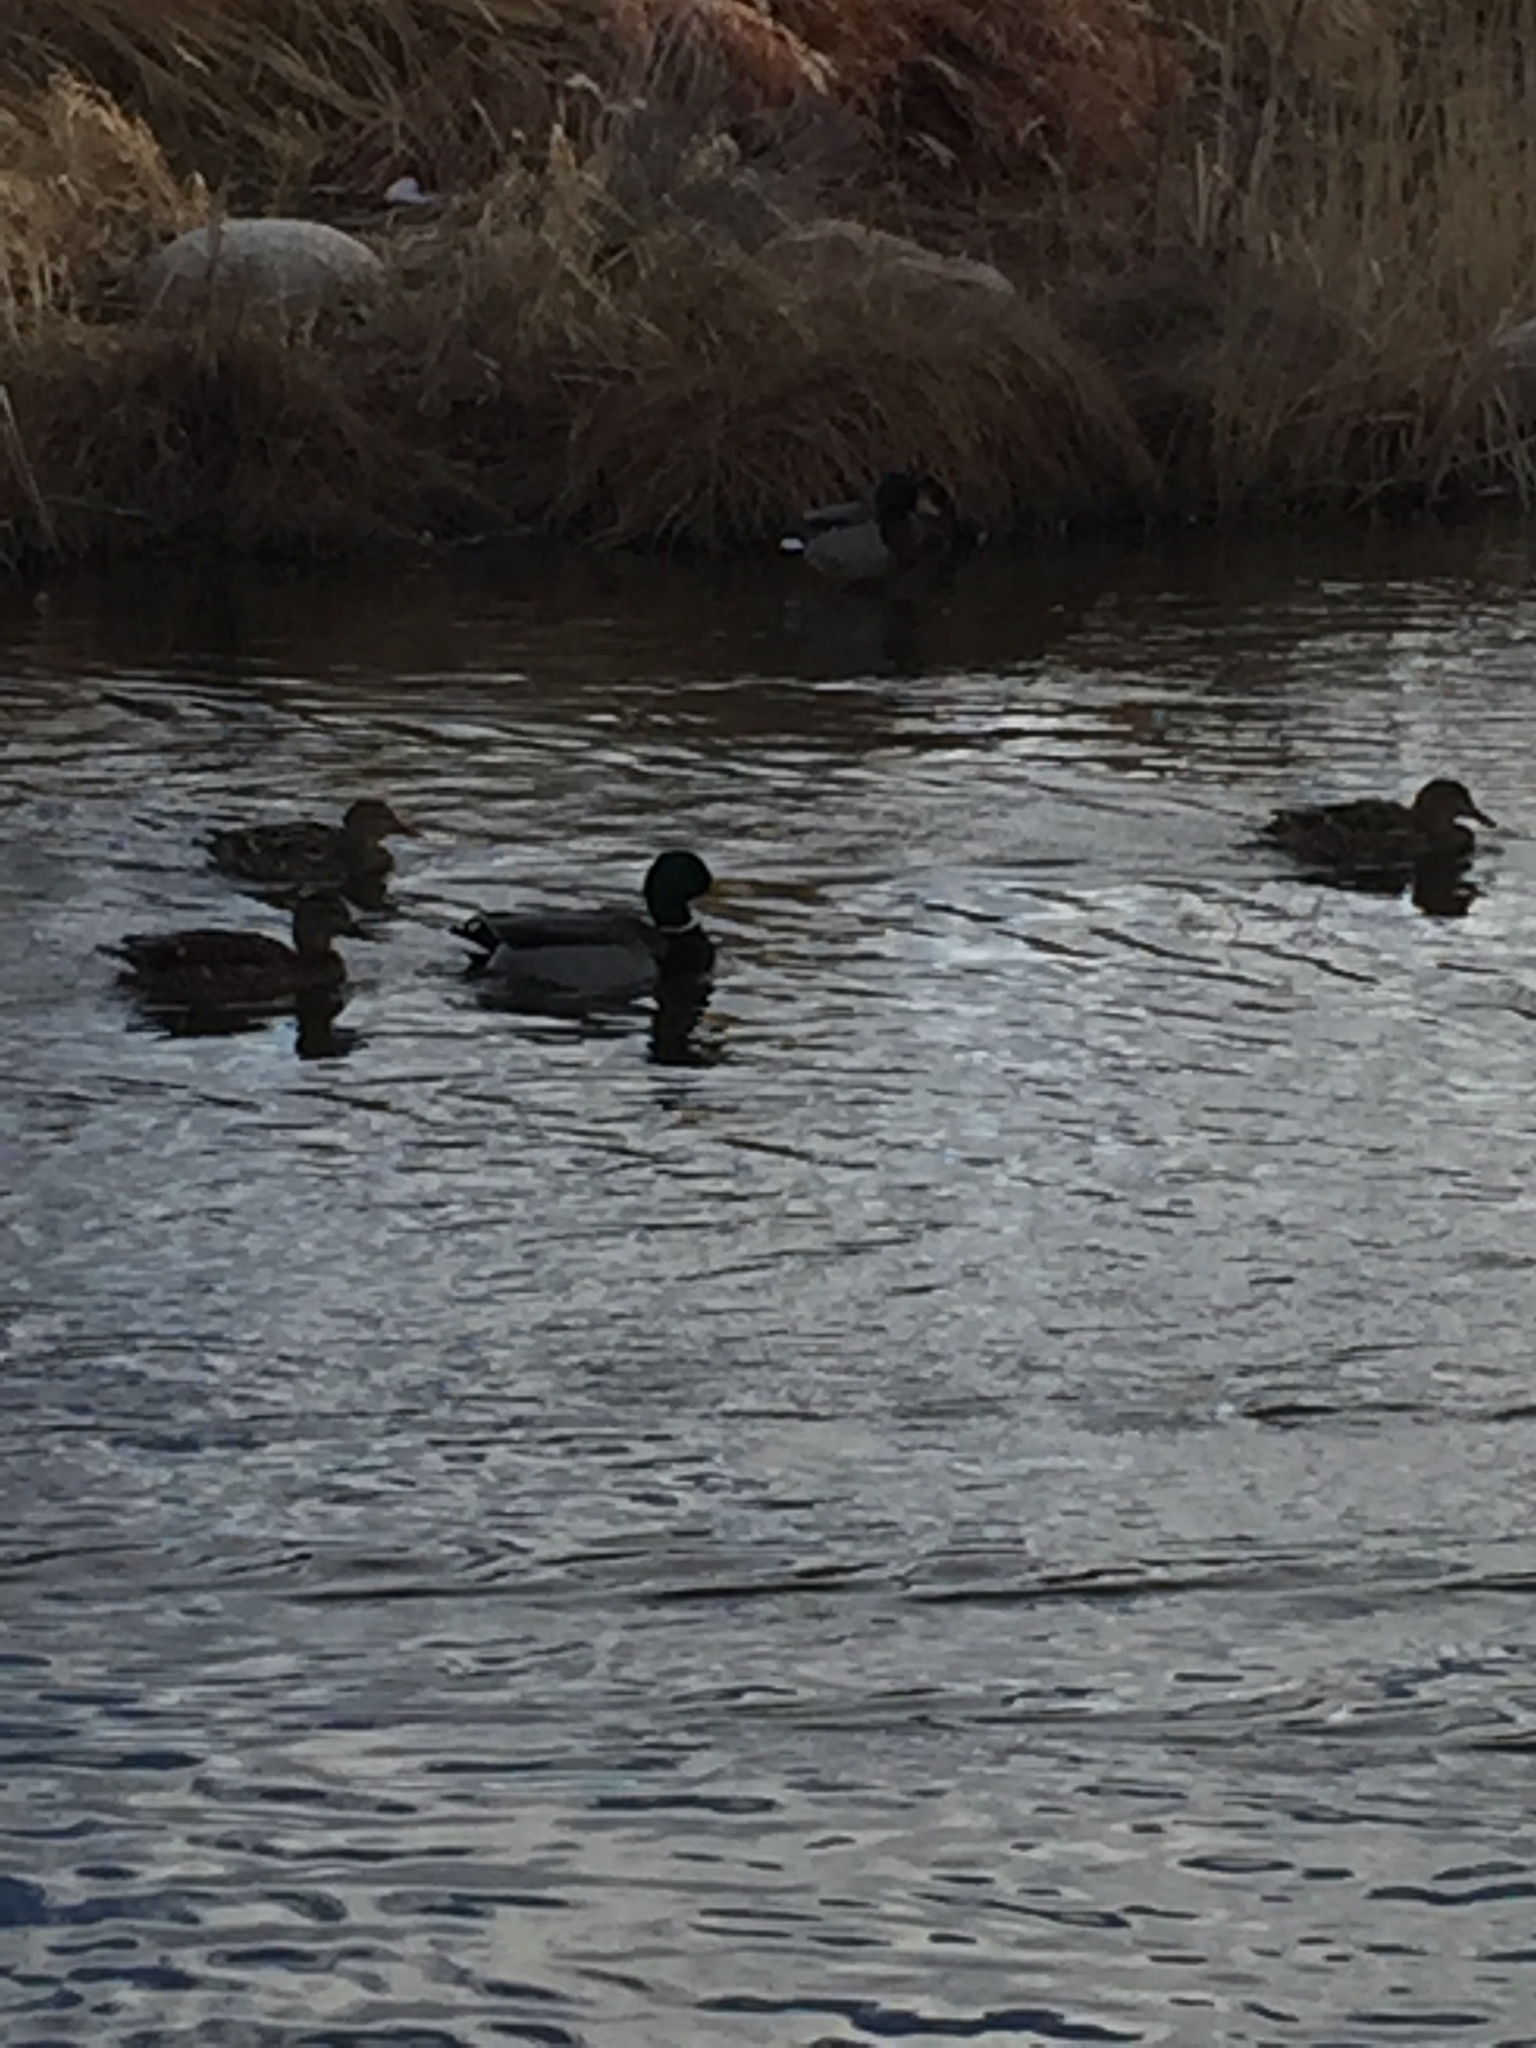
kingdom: Animalia
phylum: Chordata
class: Aves
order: Anseriformes
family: Anatidae
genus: Anas
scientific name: Anas platyrhynchos
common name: Mallard
